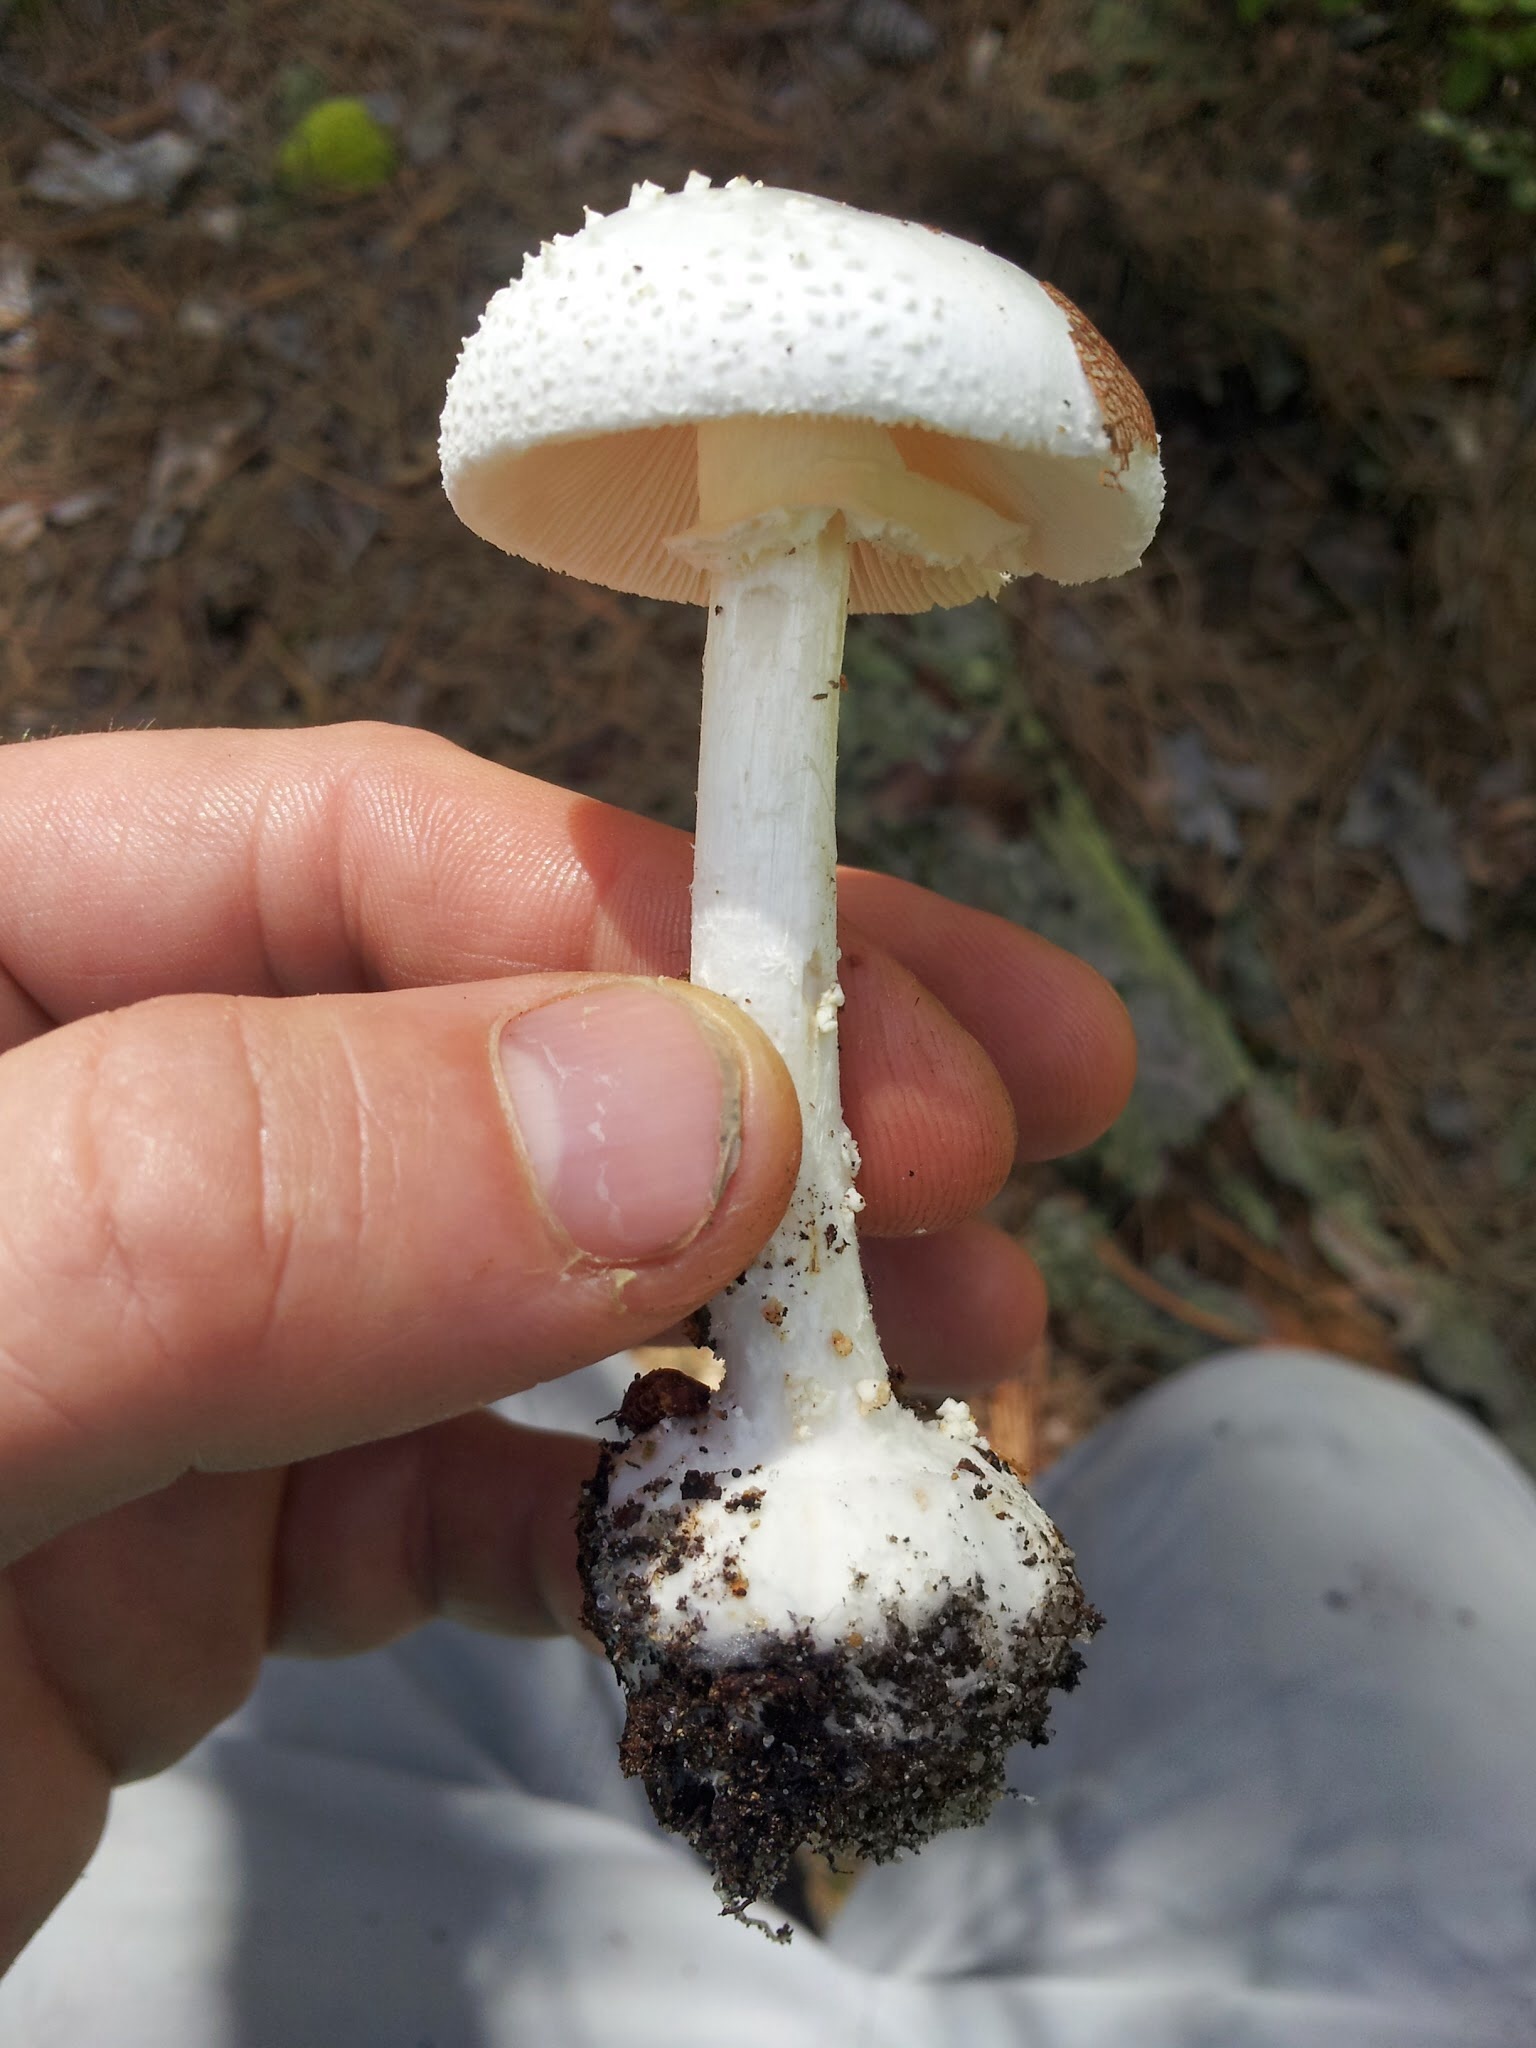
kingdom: Fungi
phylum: Basidiomycota
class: Agaricomycetes
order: Agaricales
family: Amanitaceae
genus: Amanita
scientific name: Amanita abrupta
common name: American abrupt-bulbed lepidella
